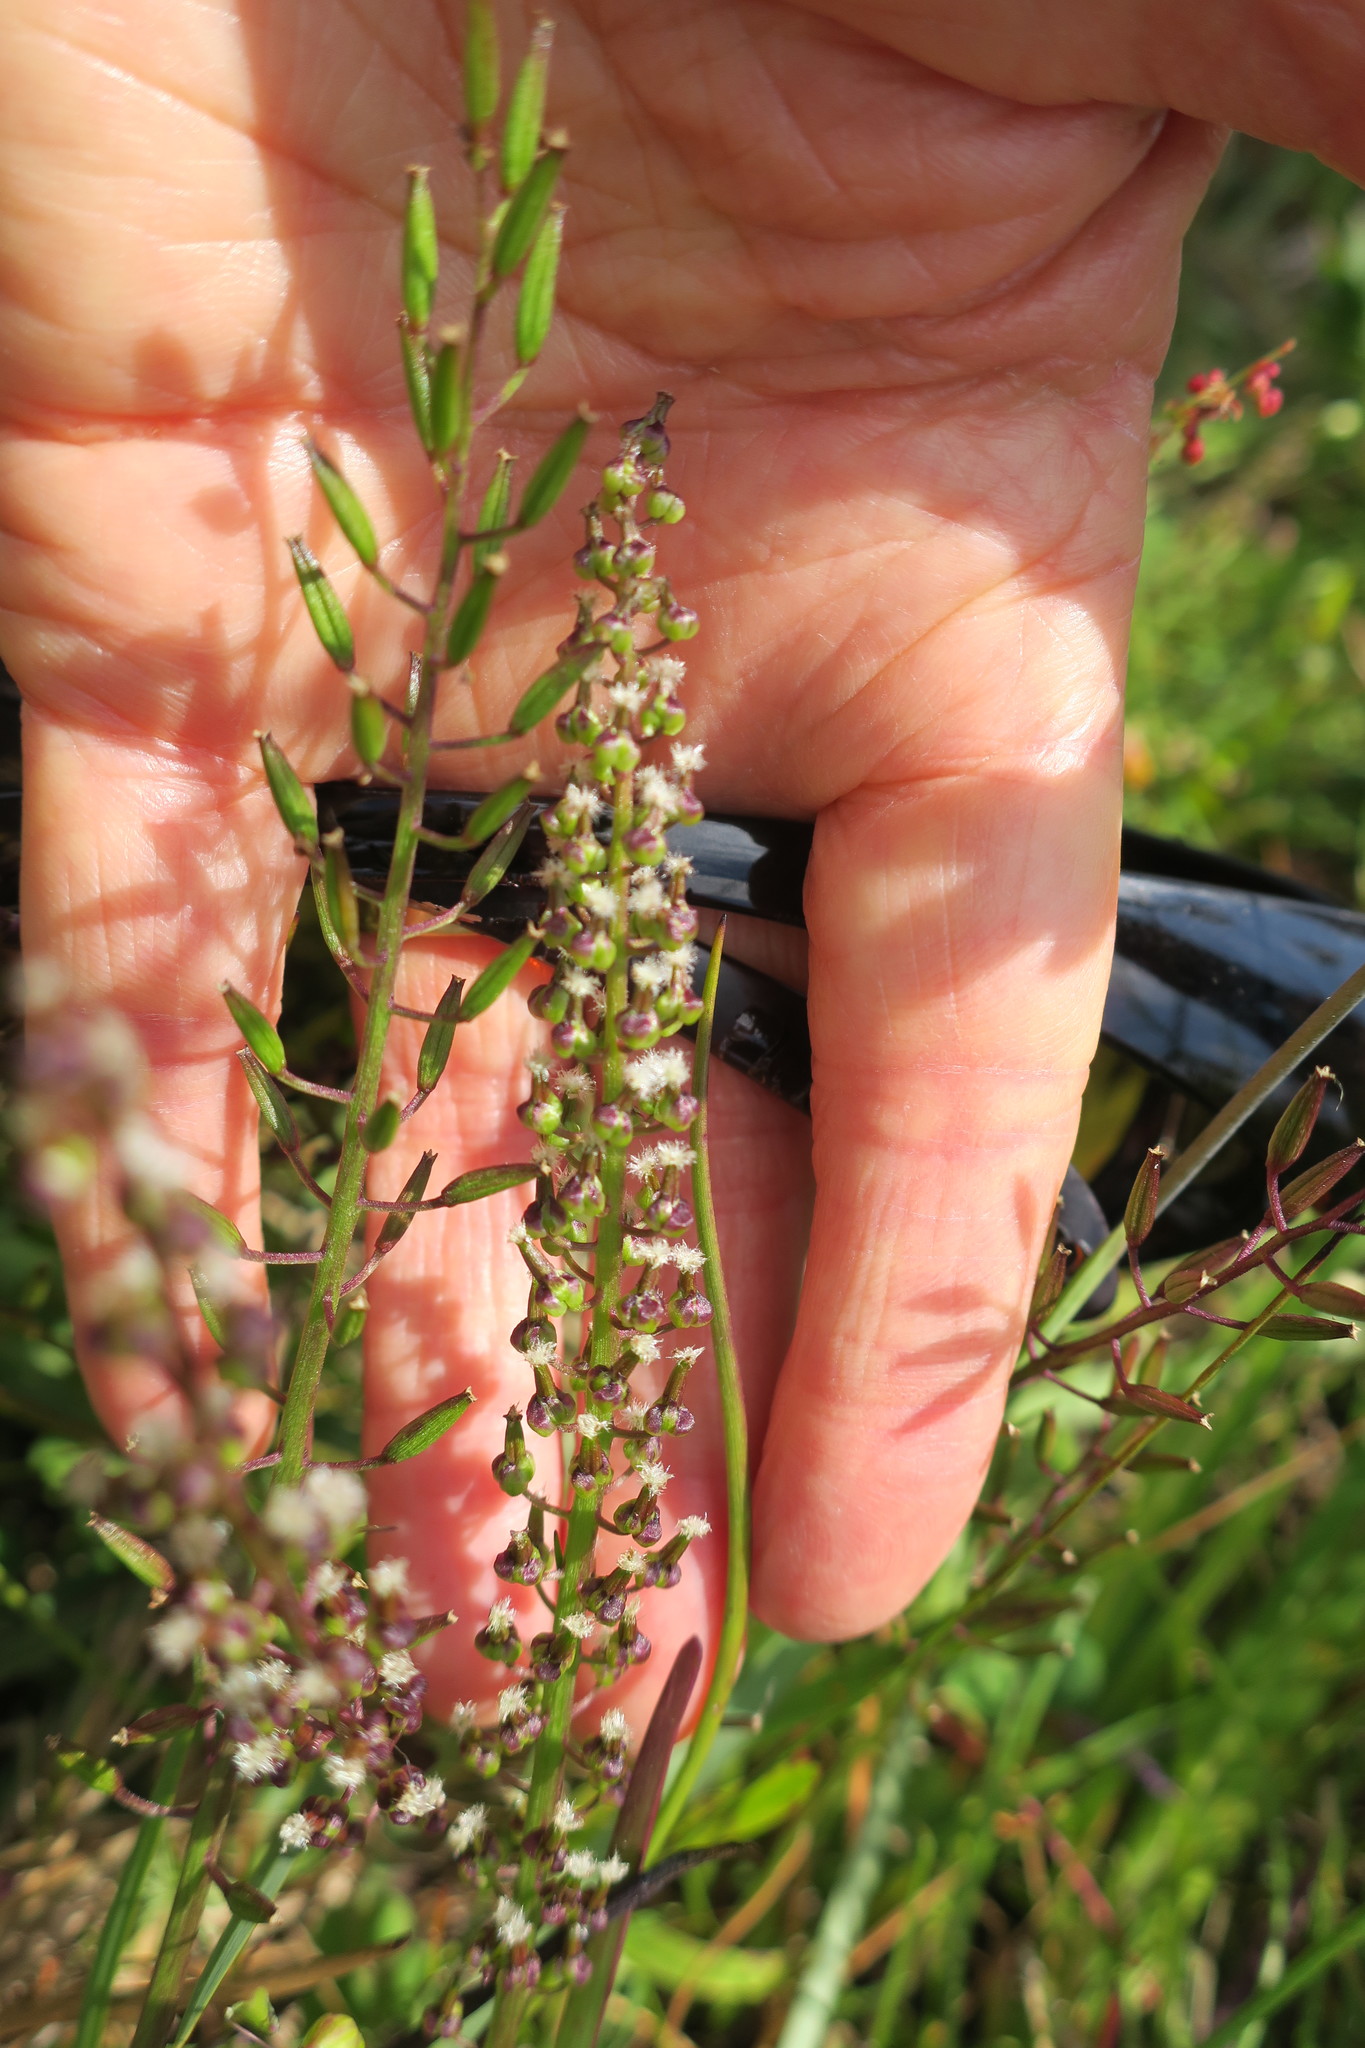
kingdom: Plantae
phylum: Tracheophyta
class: Liliopsida
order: Alismatales
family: Juncaginaceae
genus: Triglochin
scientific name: Triglochin bulbosa
